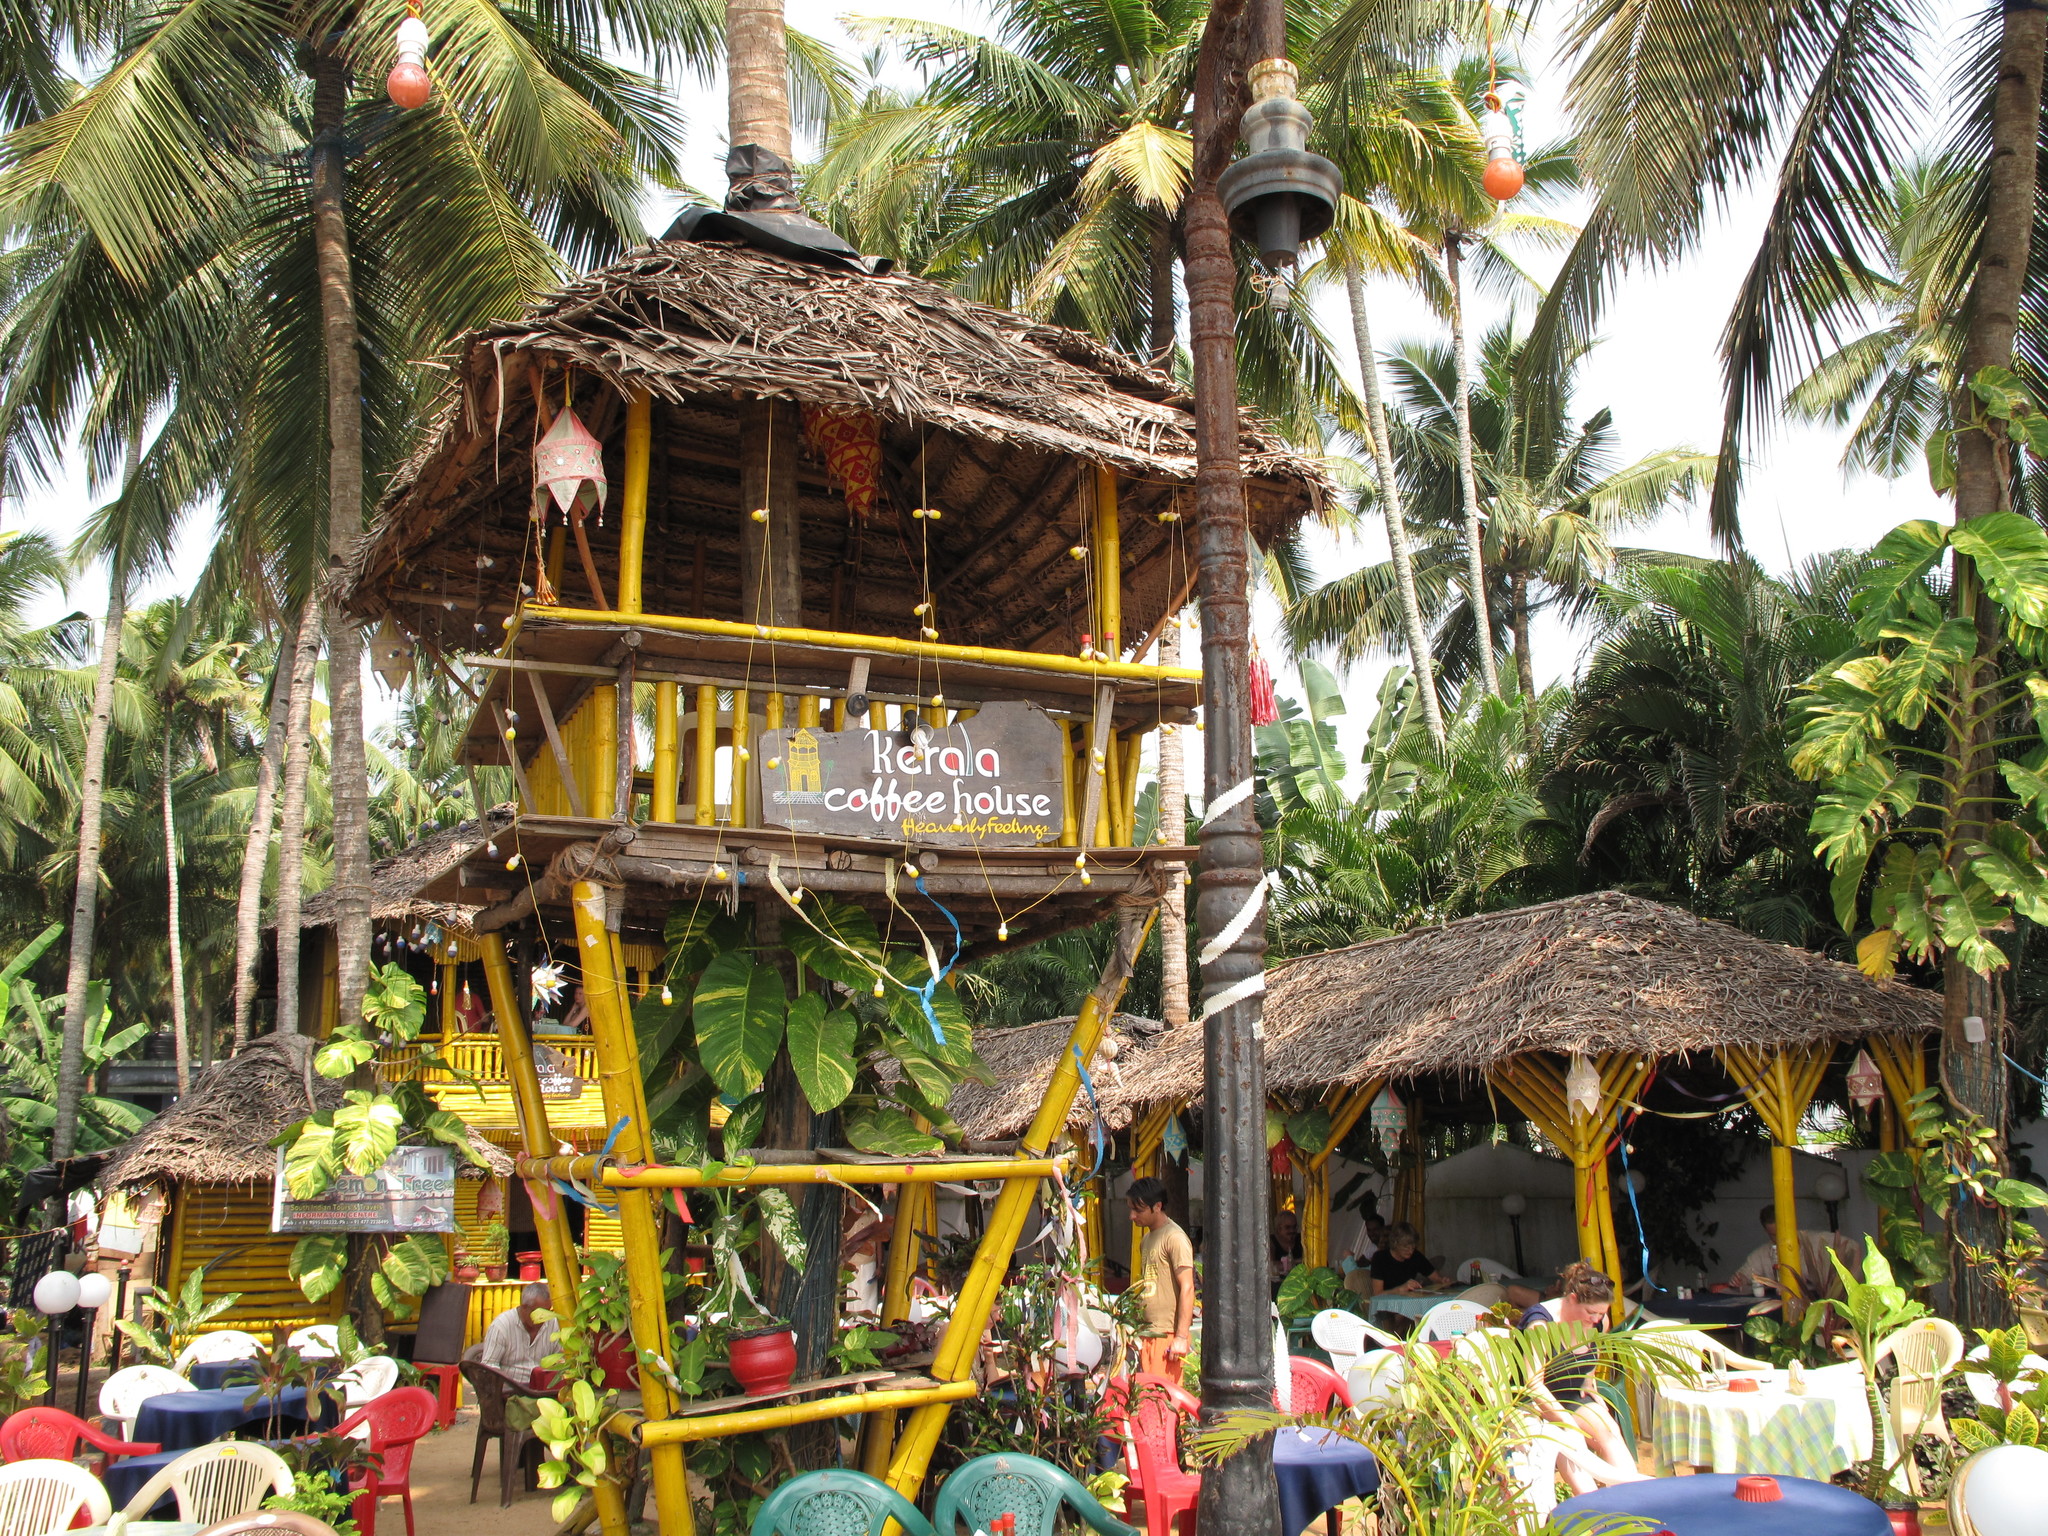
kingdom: Plantae
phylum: Tracheophyta
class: Liliopsida
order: Arecales
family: Arecaceae
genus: Cocos
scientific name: Cocos nucifera
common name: Coconut palm
